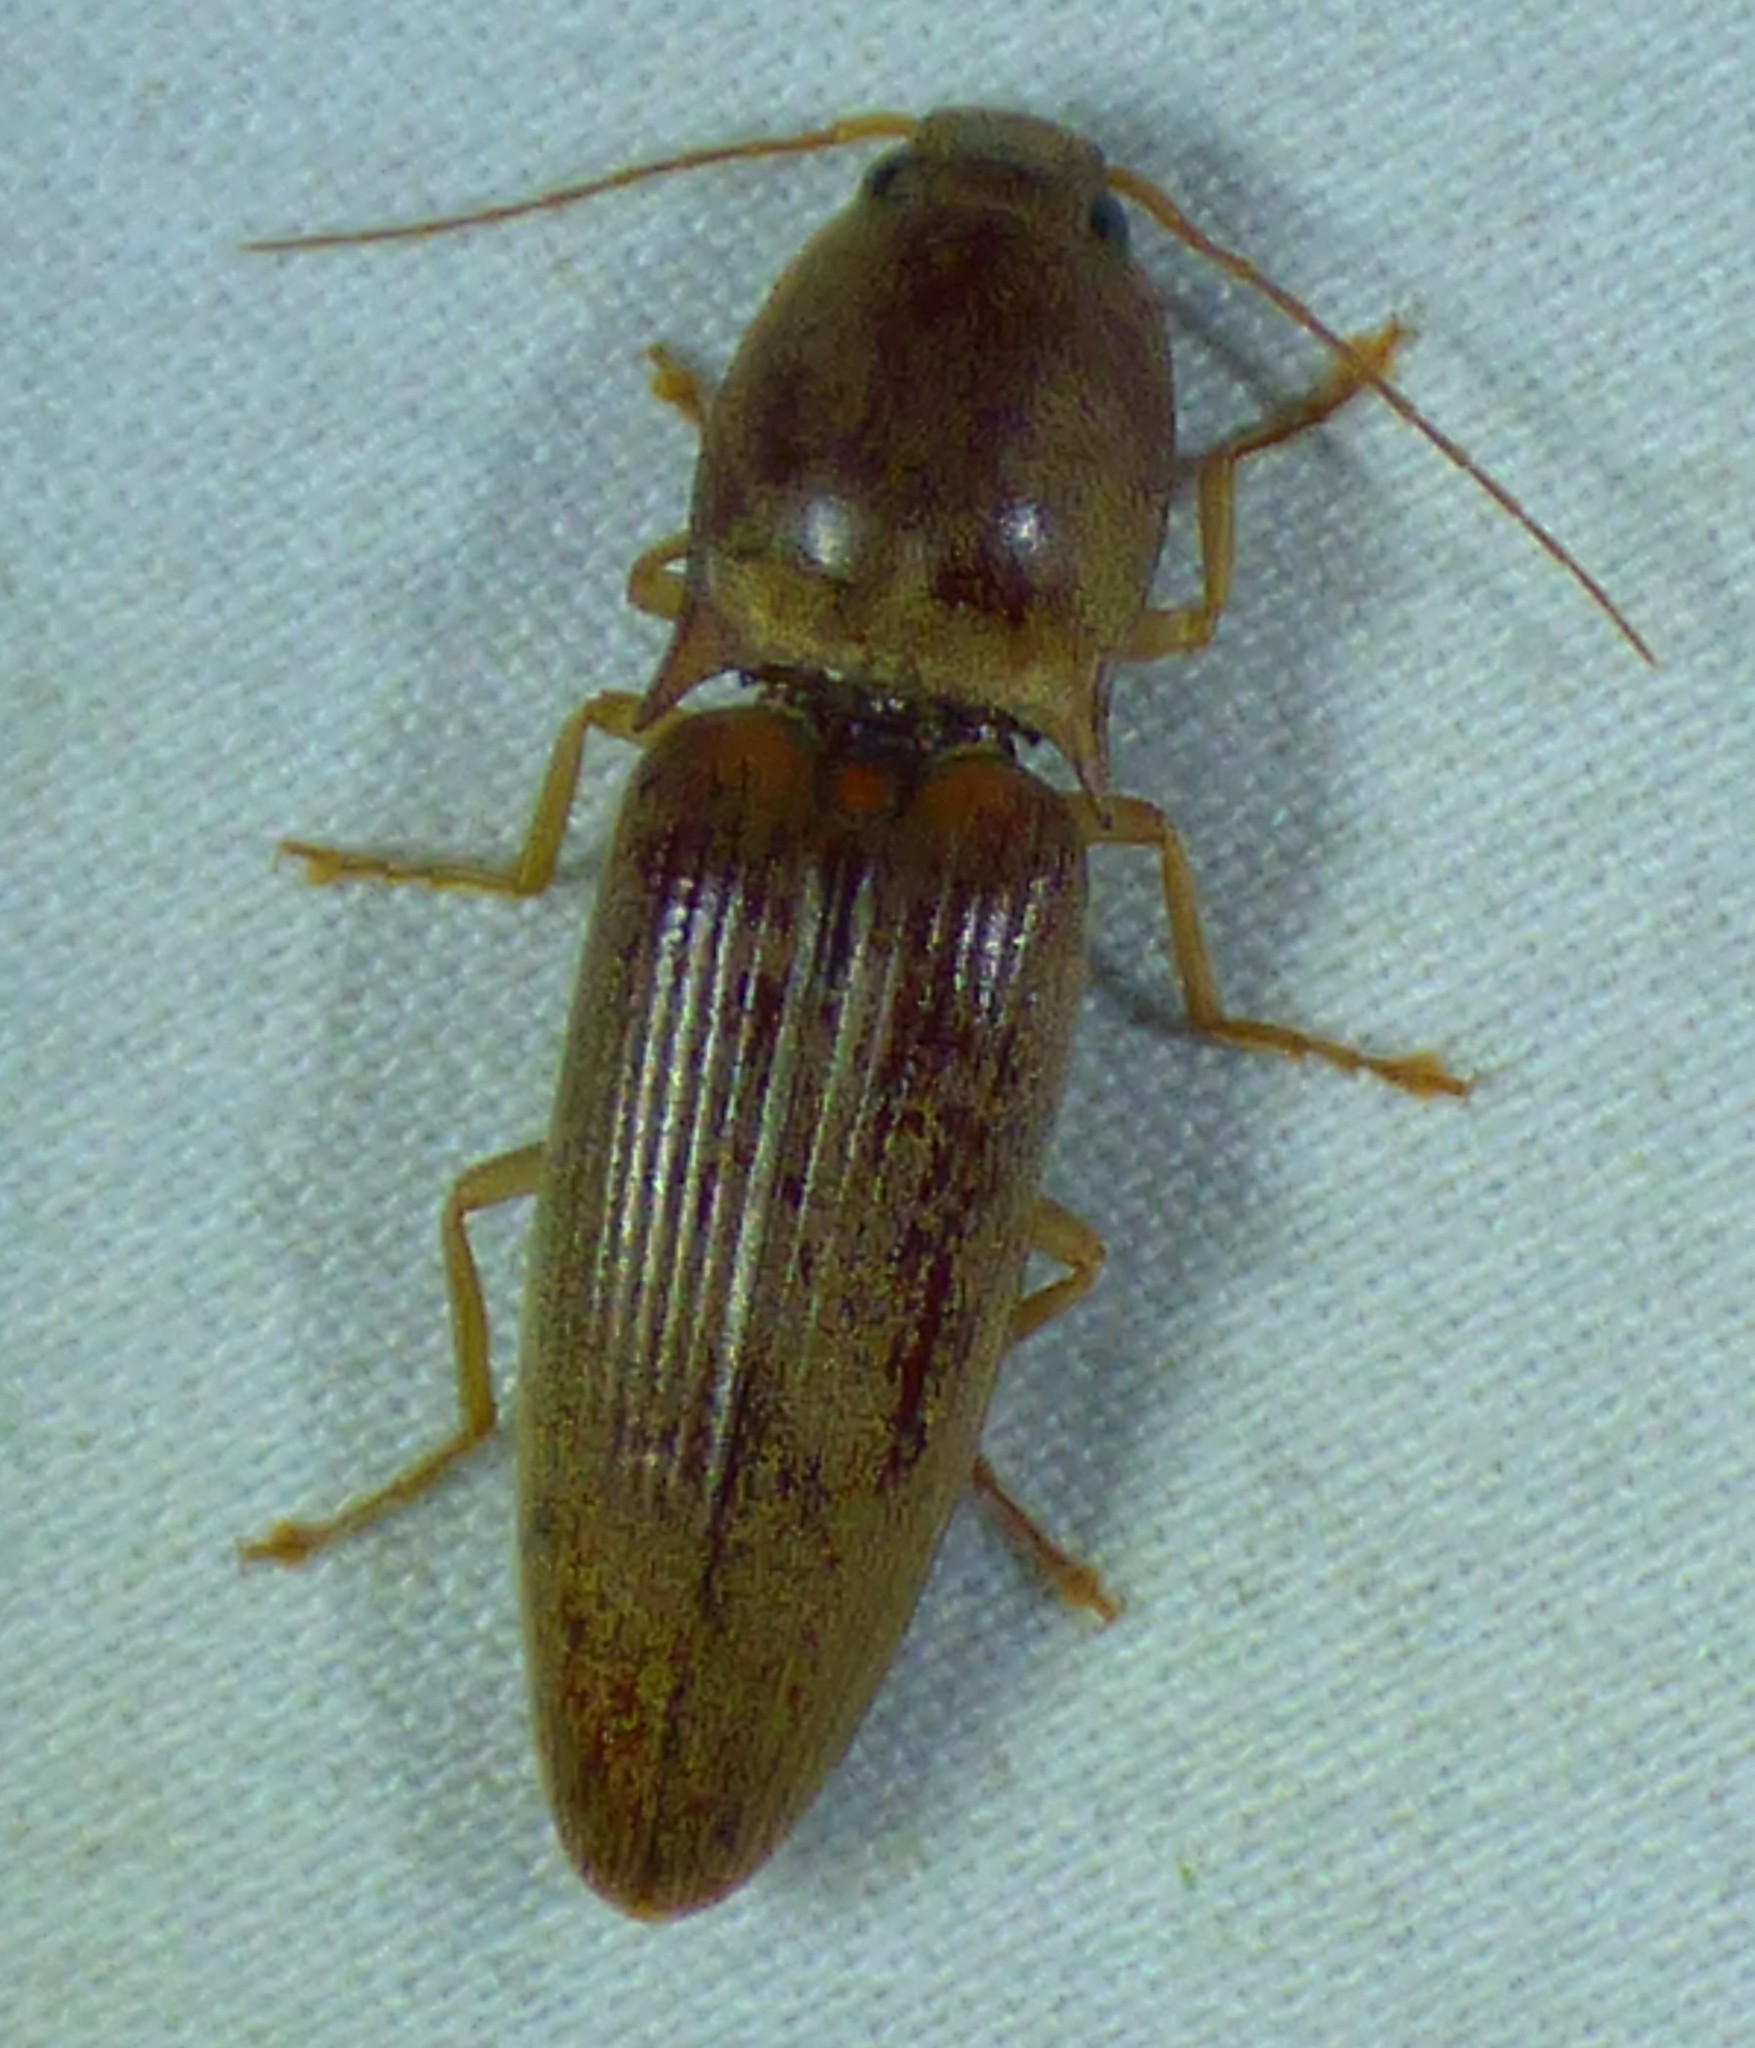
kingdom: Animalia
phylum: Arthropoda
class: Insecta
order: Coleoptera
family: Elateridae
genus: Monocrepidius
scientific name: Monocrepidius lividus
